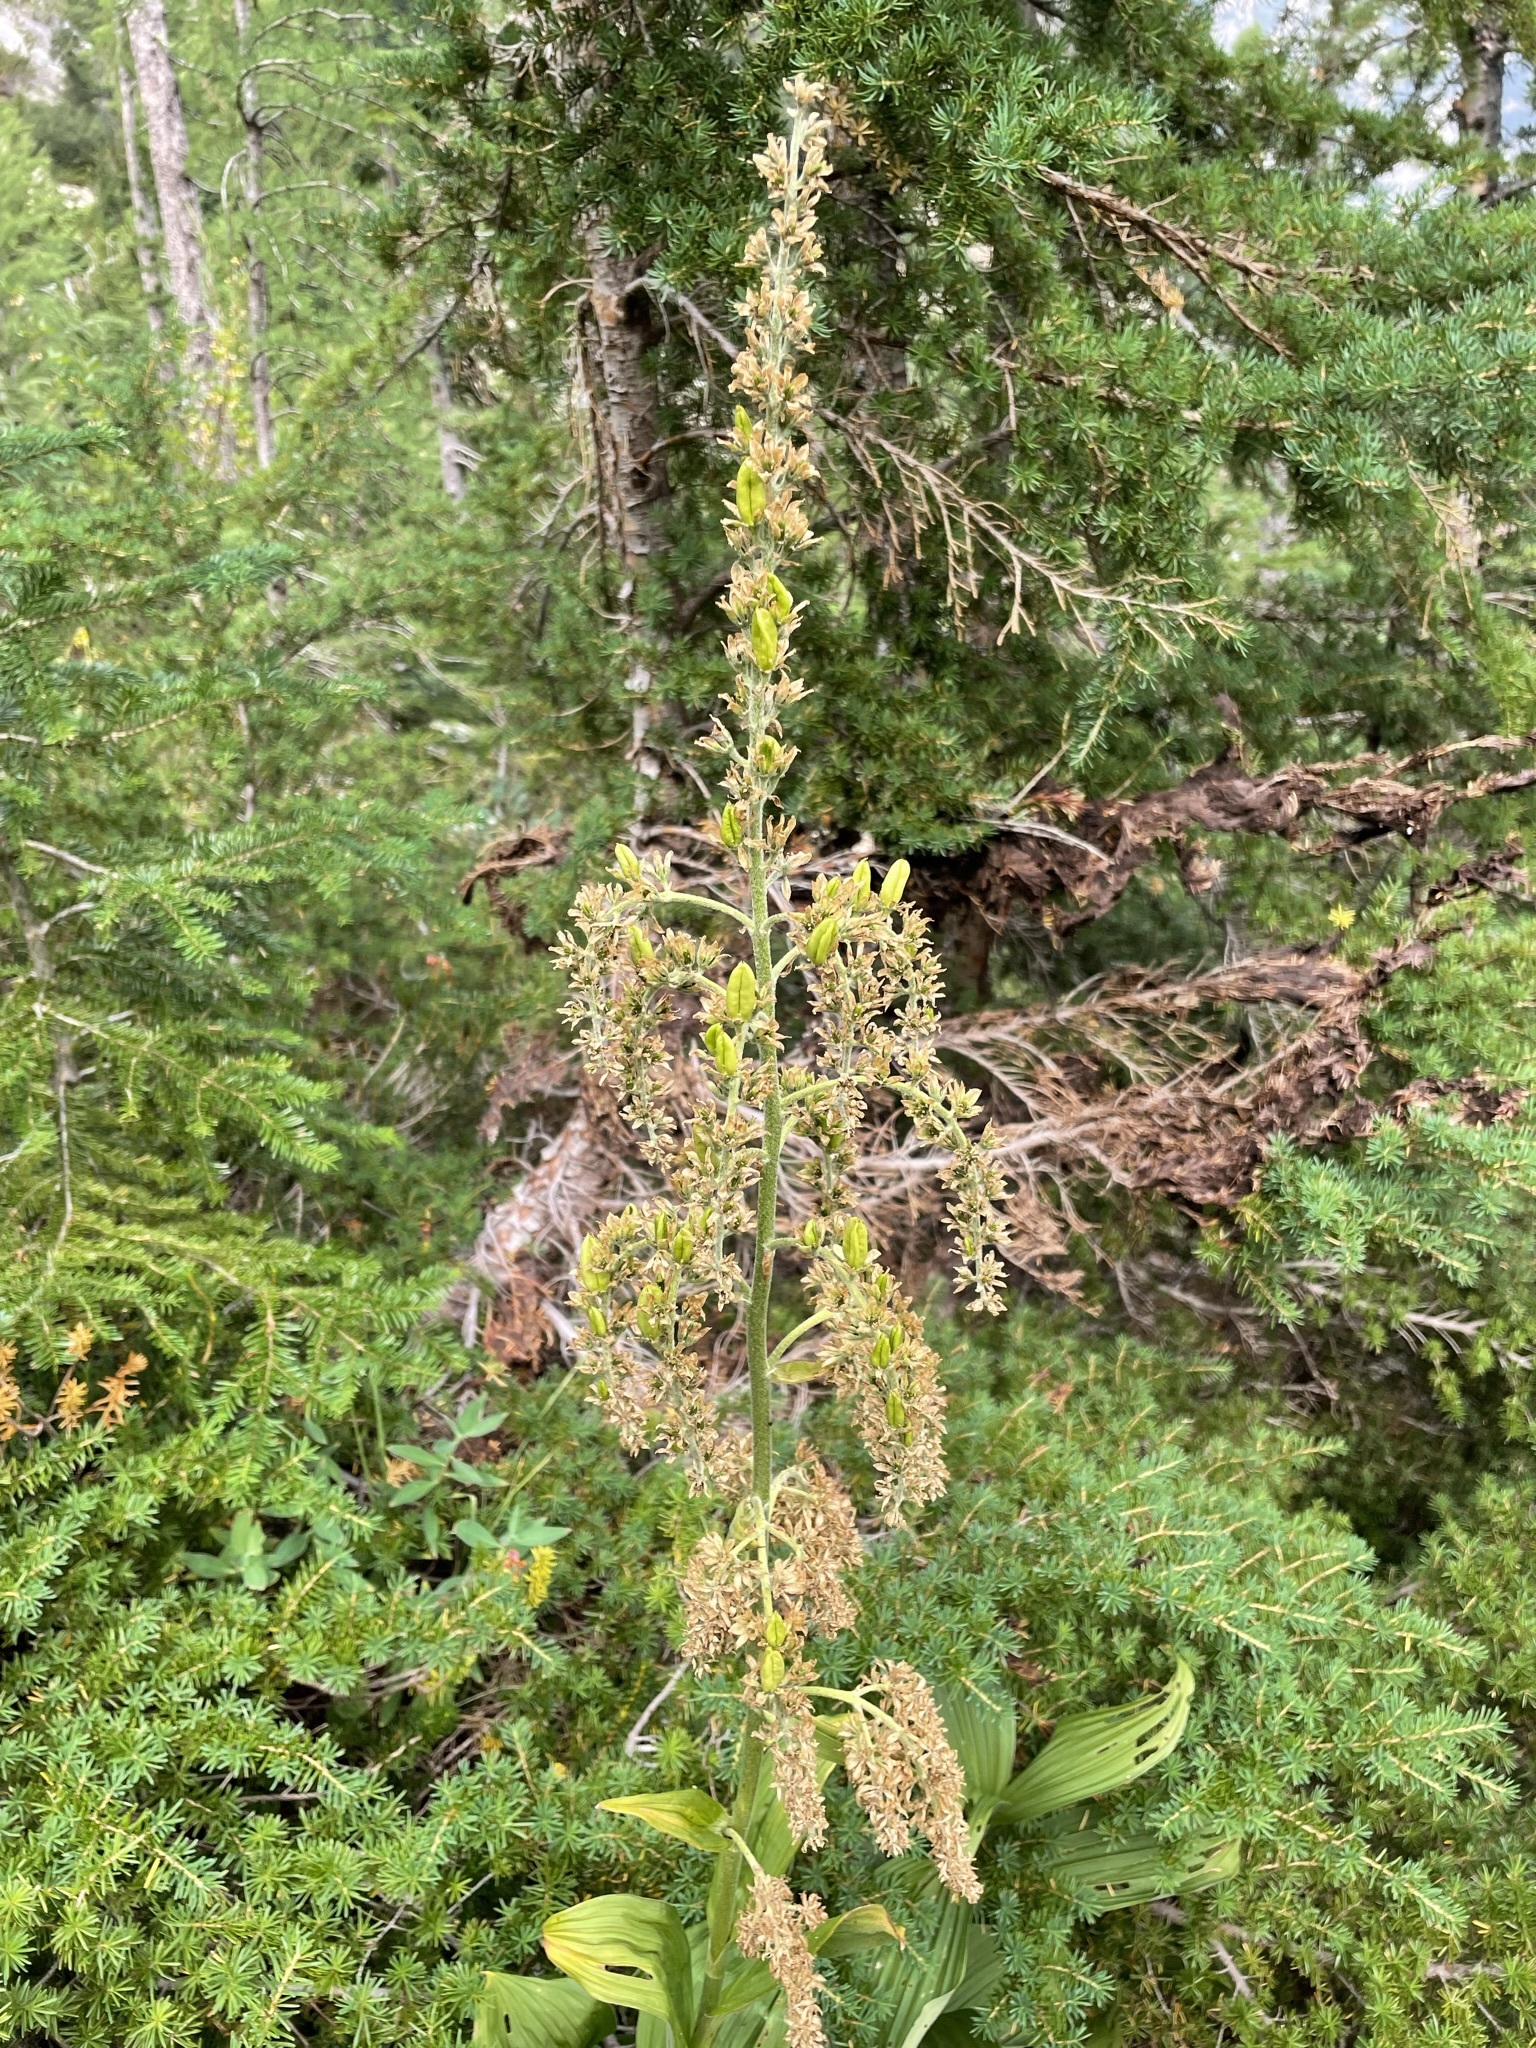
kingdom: Plantae
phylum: Tracheophyta
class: Liliopsida
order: Liliales
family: Melanthiaceae
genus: Veratrum
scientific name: Veratrum viride
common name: American false hellebore
